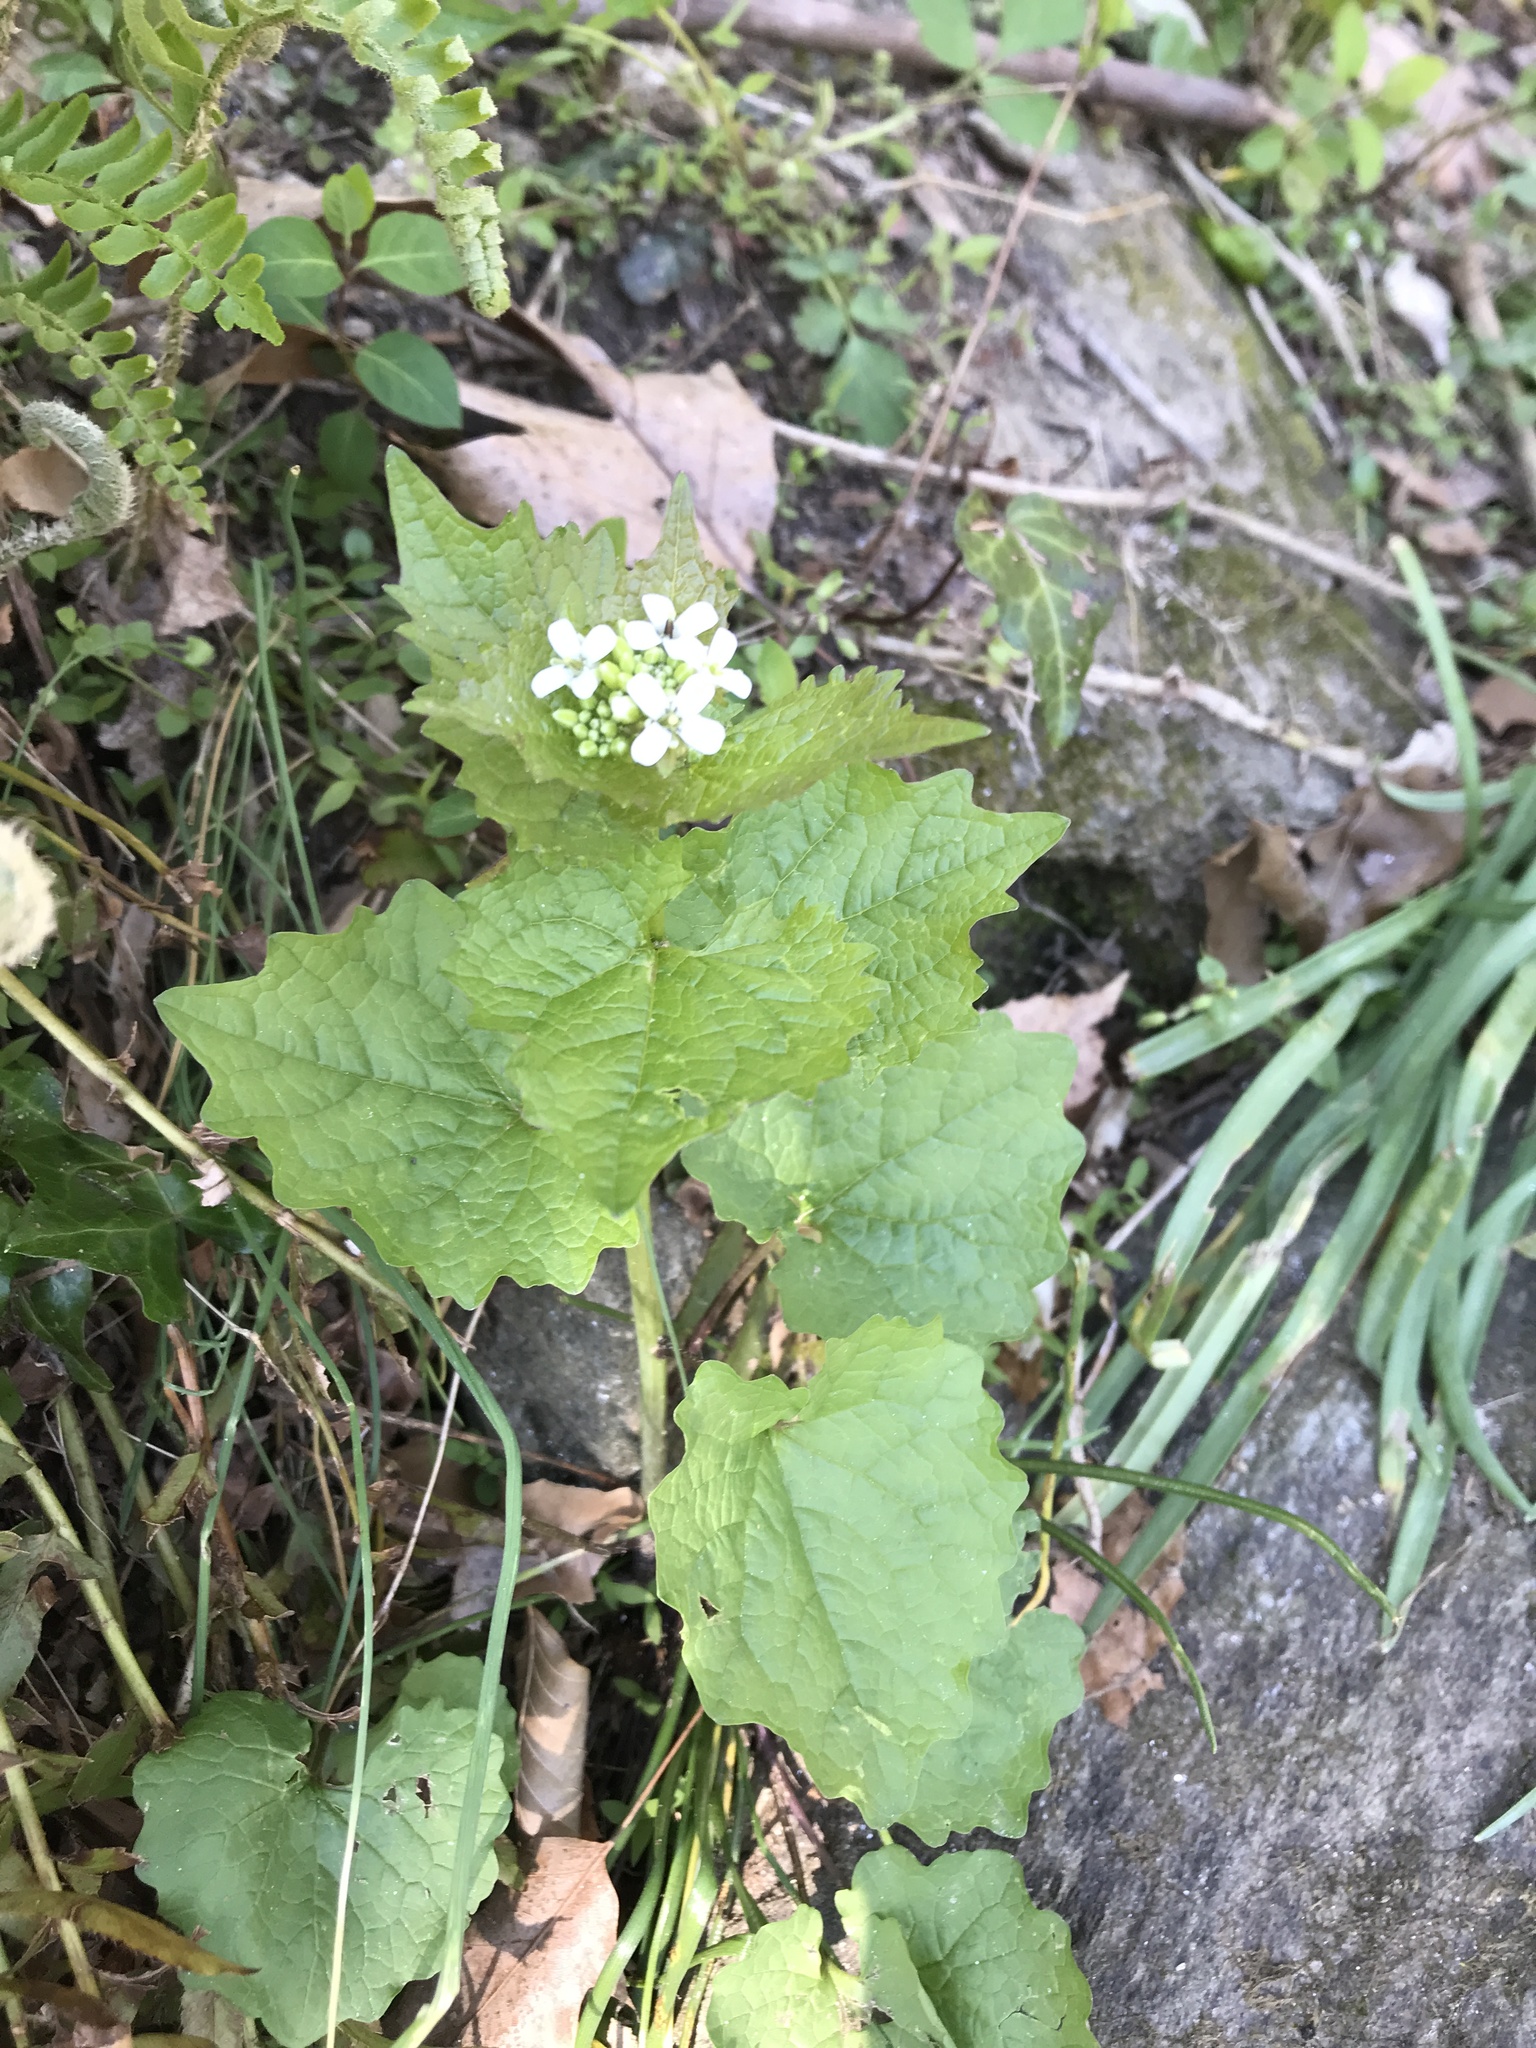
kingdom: Plantae
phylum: Tracheophyta
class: Magnoliopsida
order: Brassicales
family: Brassicaceae
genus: Alliaria
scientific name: Alliaria petiolata
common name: Garlic mustard
